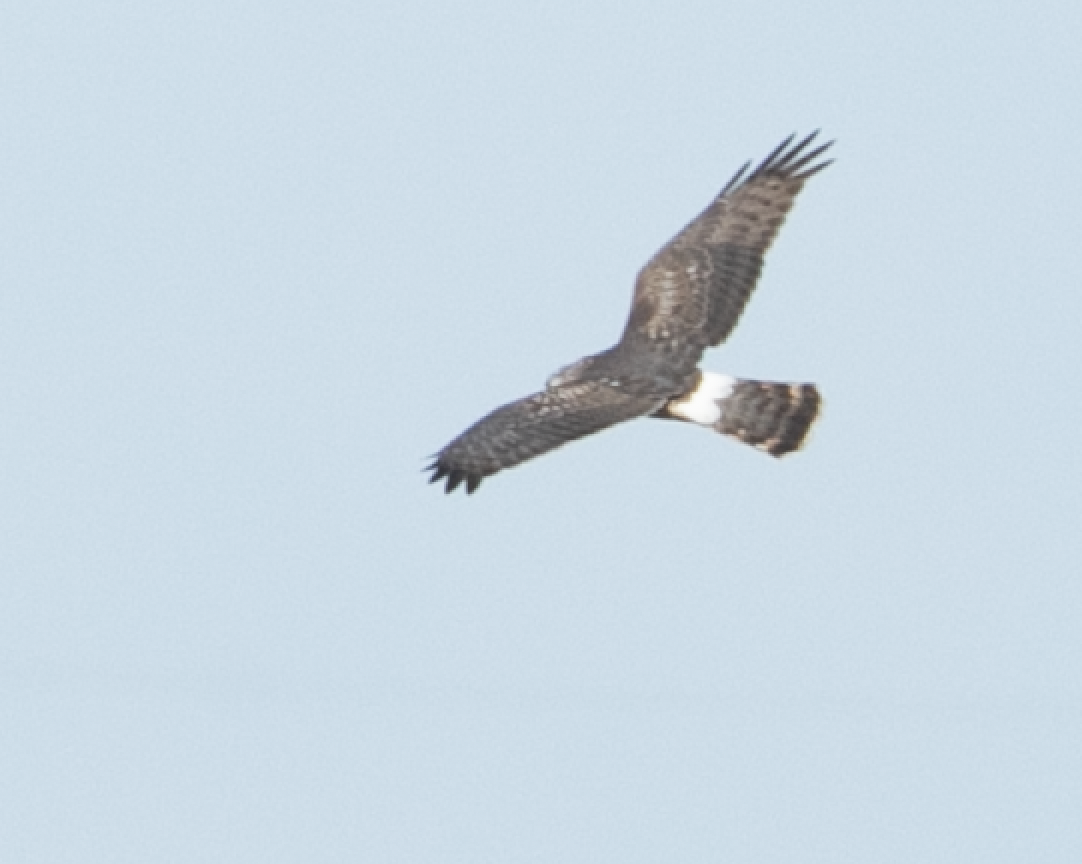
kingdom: Animalia
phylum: Chordata
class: Aves
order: Accipitriformes
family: Accipitridae
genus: Circus
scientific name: Circus cyaneus
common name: Hen harrier
